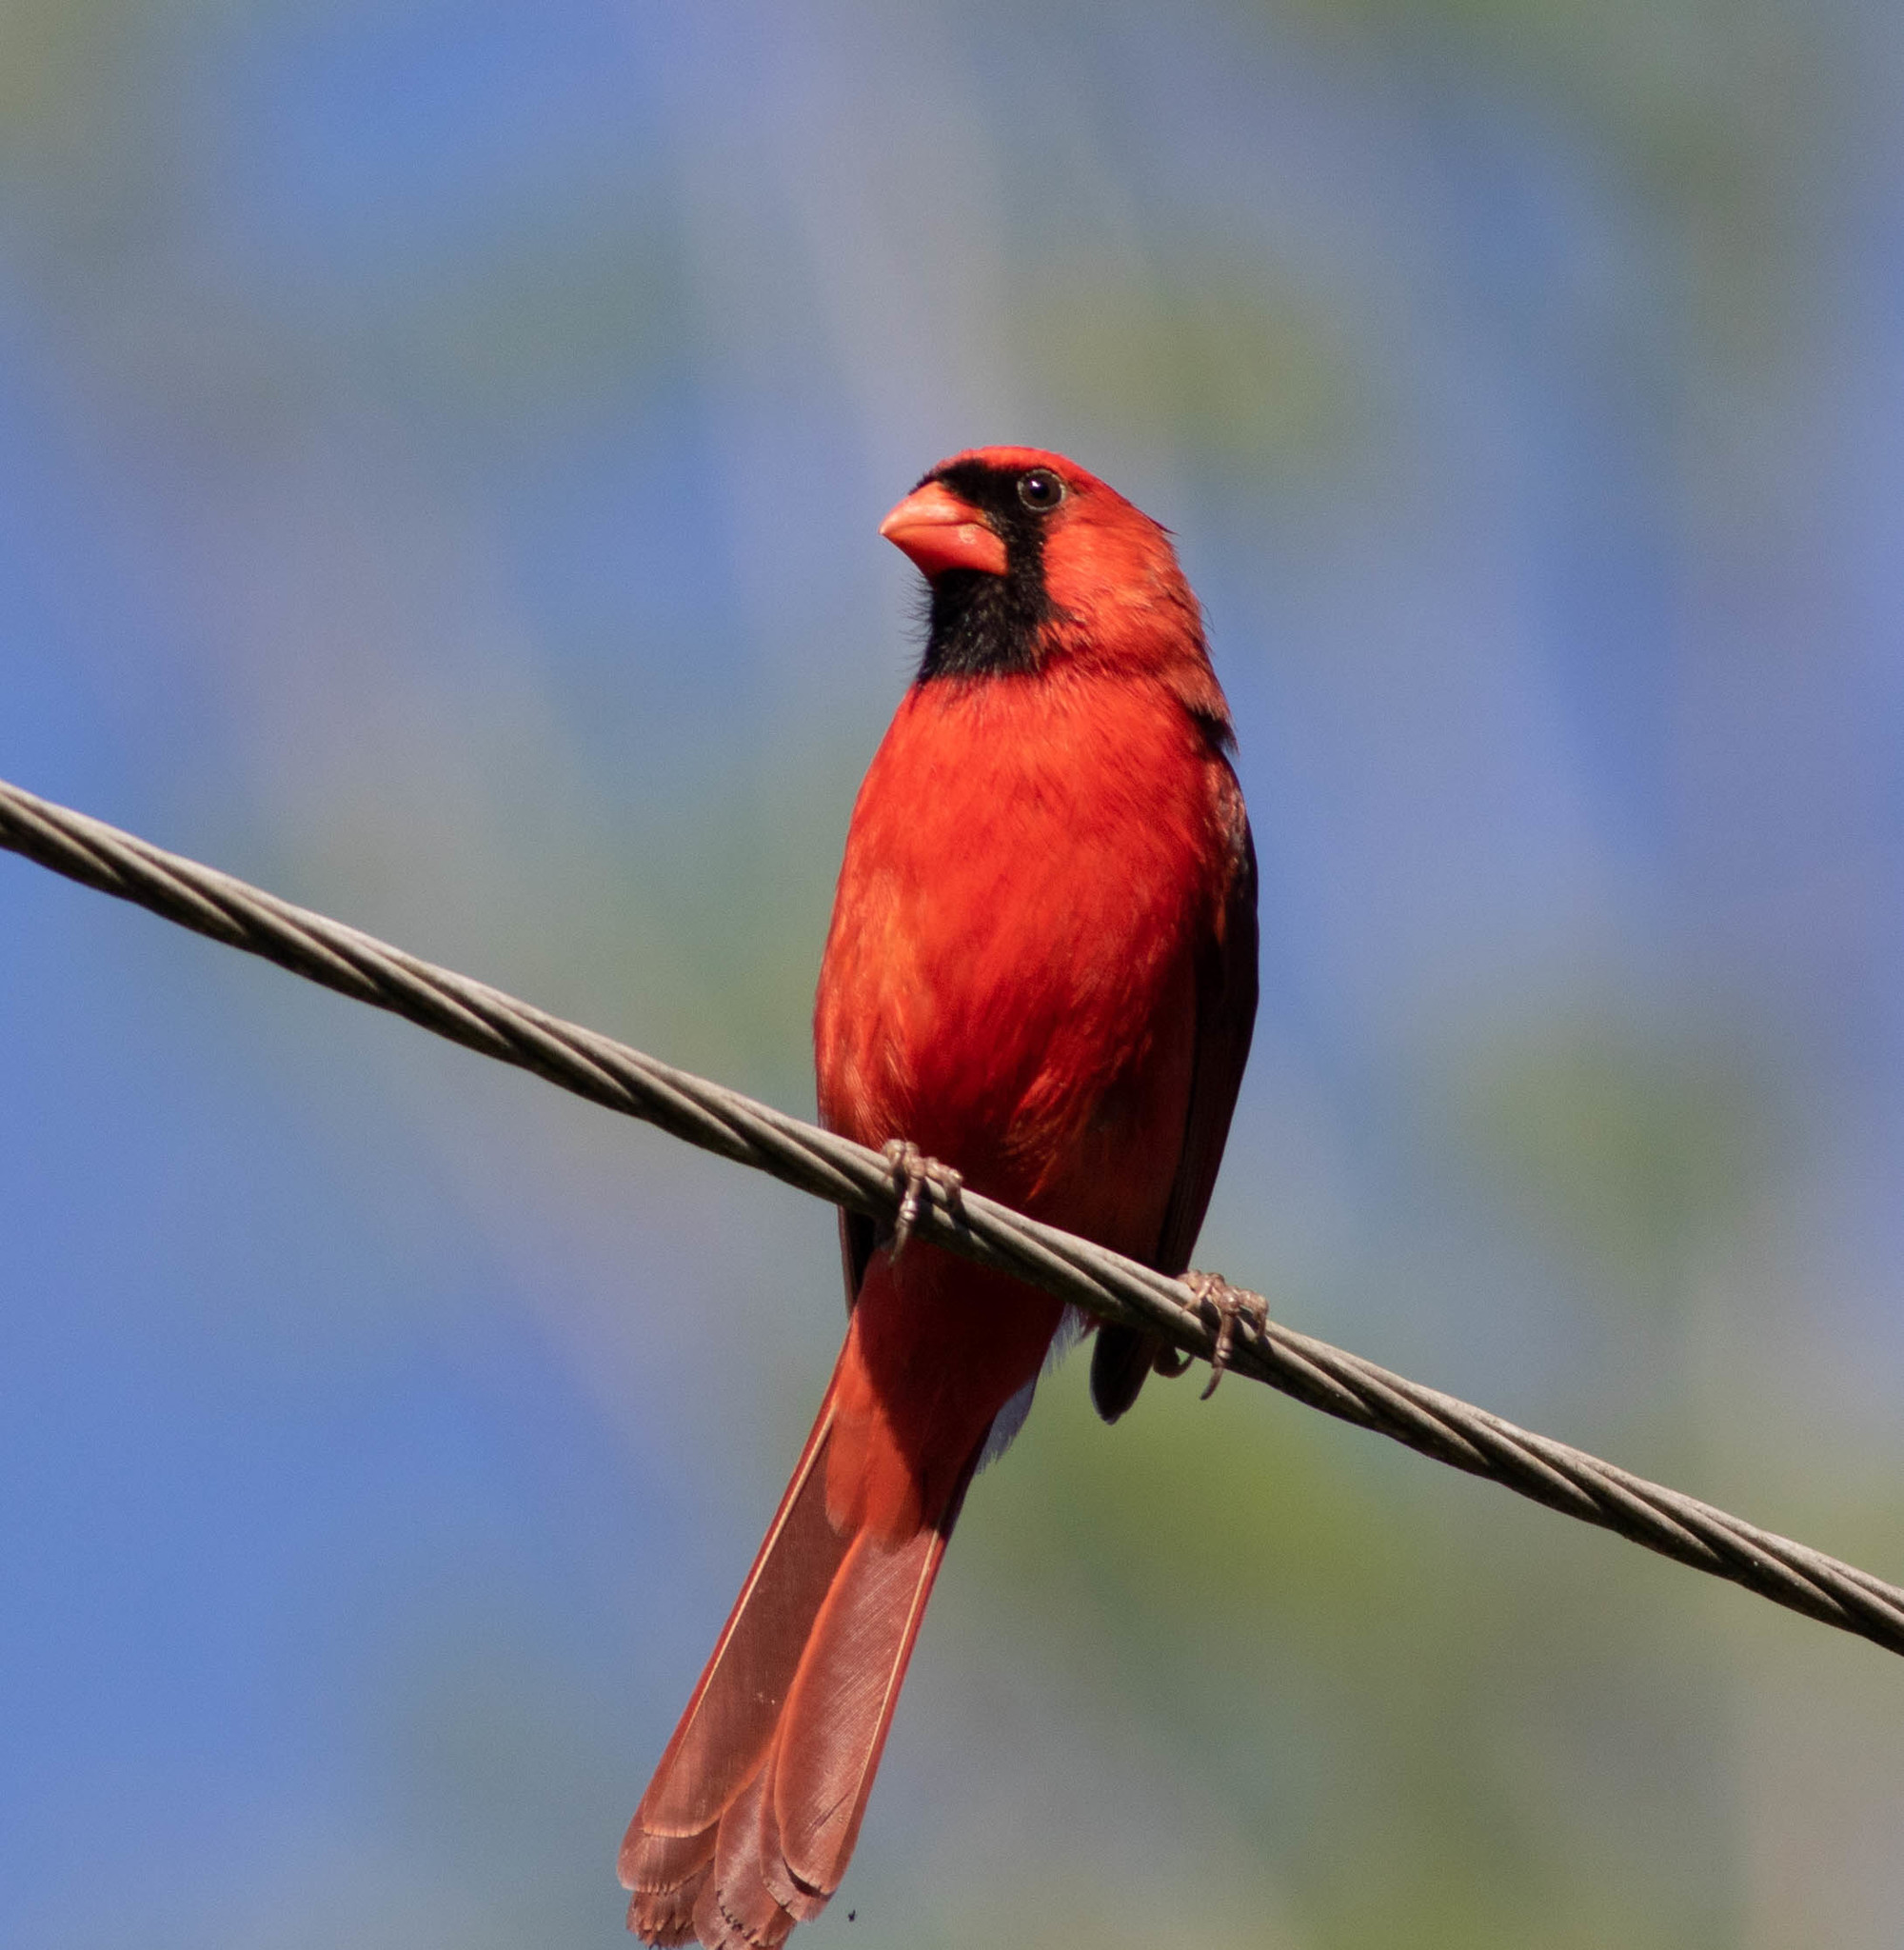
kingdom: Animalia
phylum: Chordata
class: Aves
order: Passeriformes
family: Cardinalidae
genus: Cardinalis
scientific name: Cardinalis cardinalis
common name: Northern cardinal
